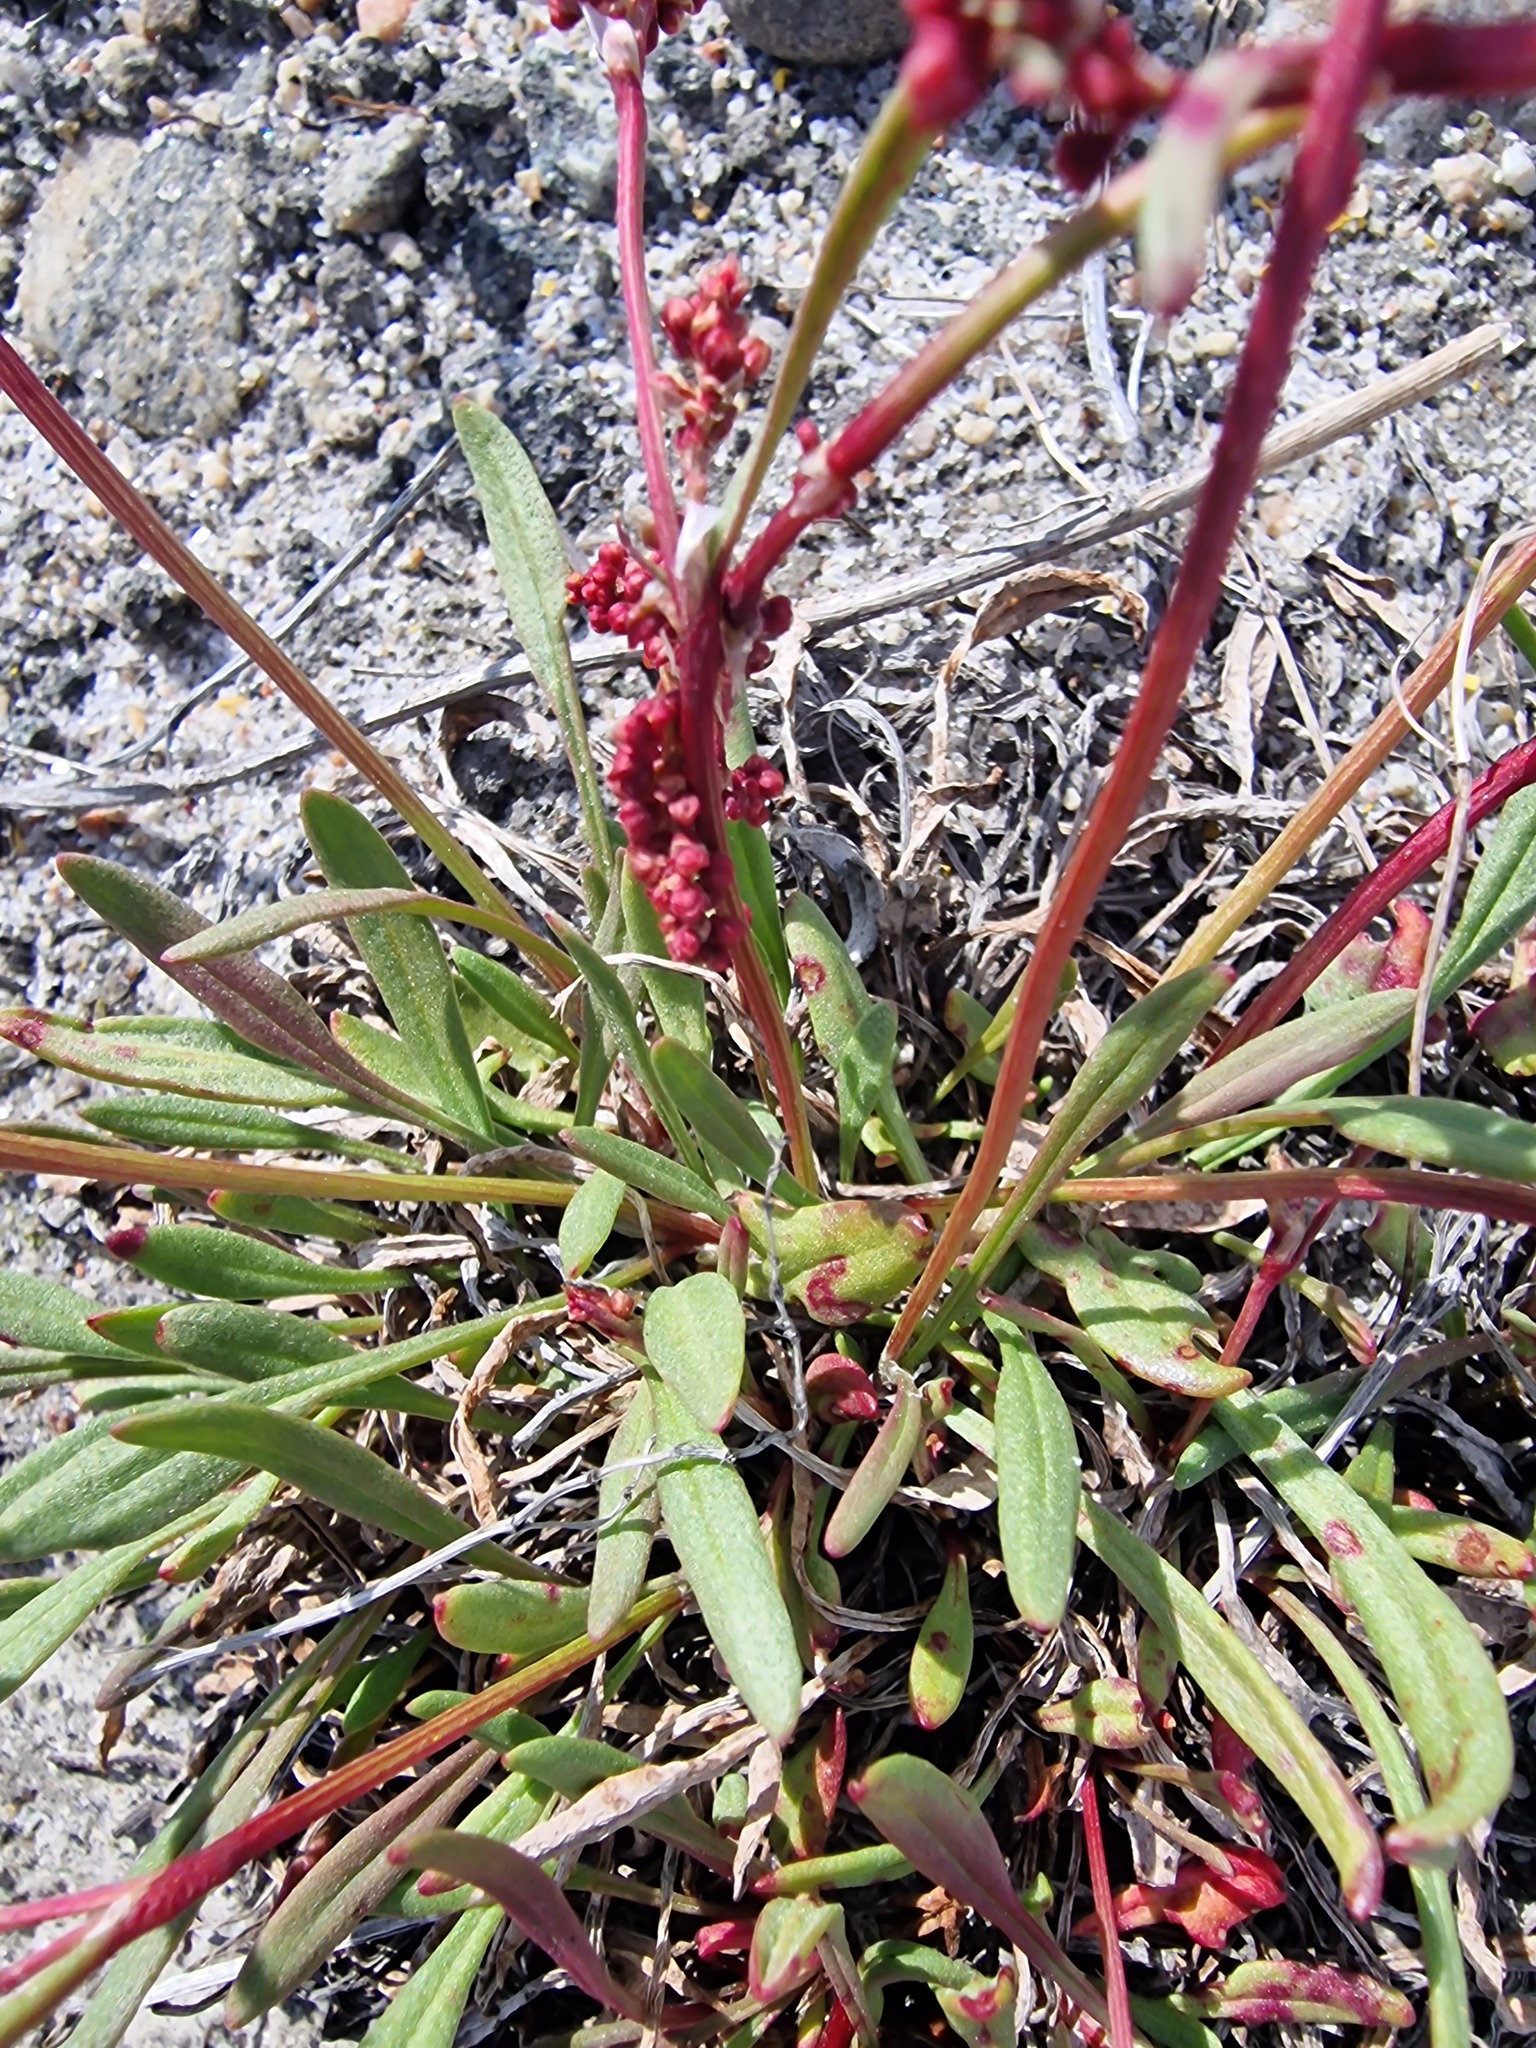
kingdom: Plantae
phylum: Tracheophyta
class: Magnoliopsida
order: Caryophyllales
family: Polygonaceae
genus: Rumex
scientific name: Rumex acetosella
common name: Common sheep sorrel
